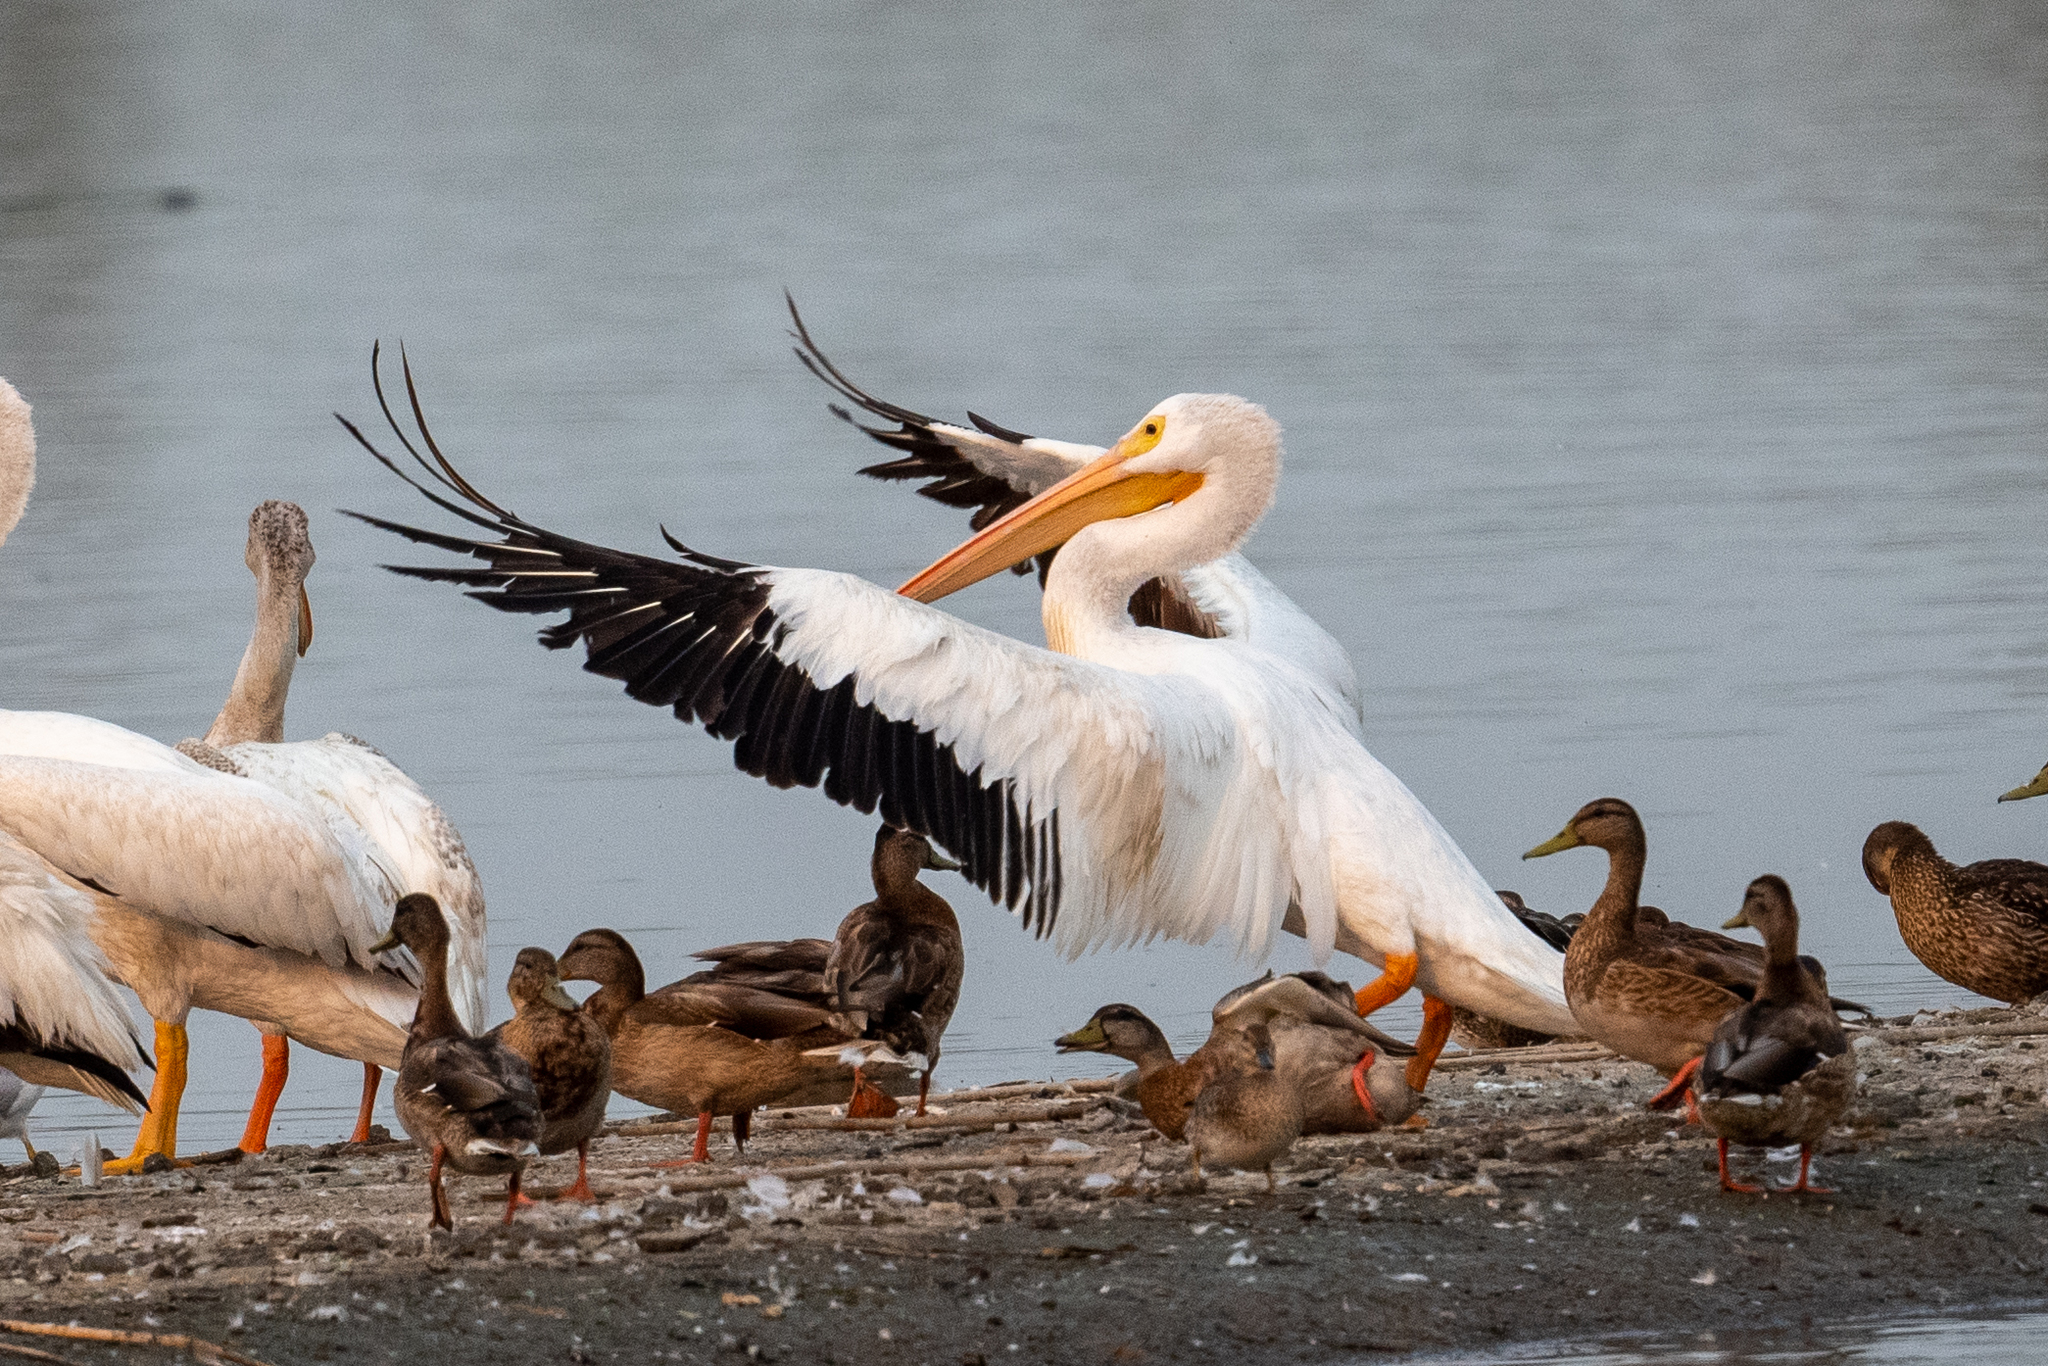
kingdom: Animalia
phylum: Chordata
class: Aves
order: Pelecaniformes
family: Pelecanidae
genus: Pelecanus
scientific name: Pelecanus erythrorhynchos
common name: American white pelican
